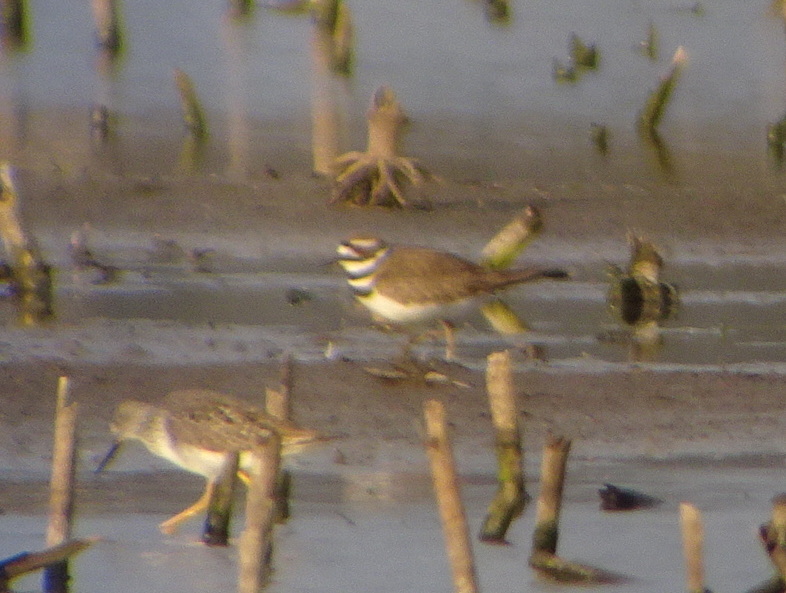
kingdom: Animalia
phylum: Chordata
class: Aves
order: Charadriiformes
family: Charadriidae
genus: Charadrius
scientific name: Charadrius vociferus
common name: Killdeer
